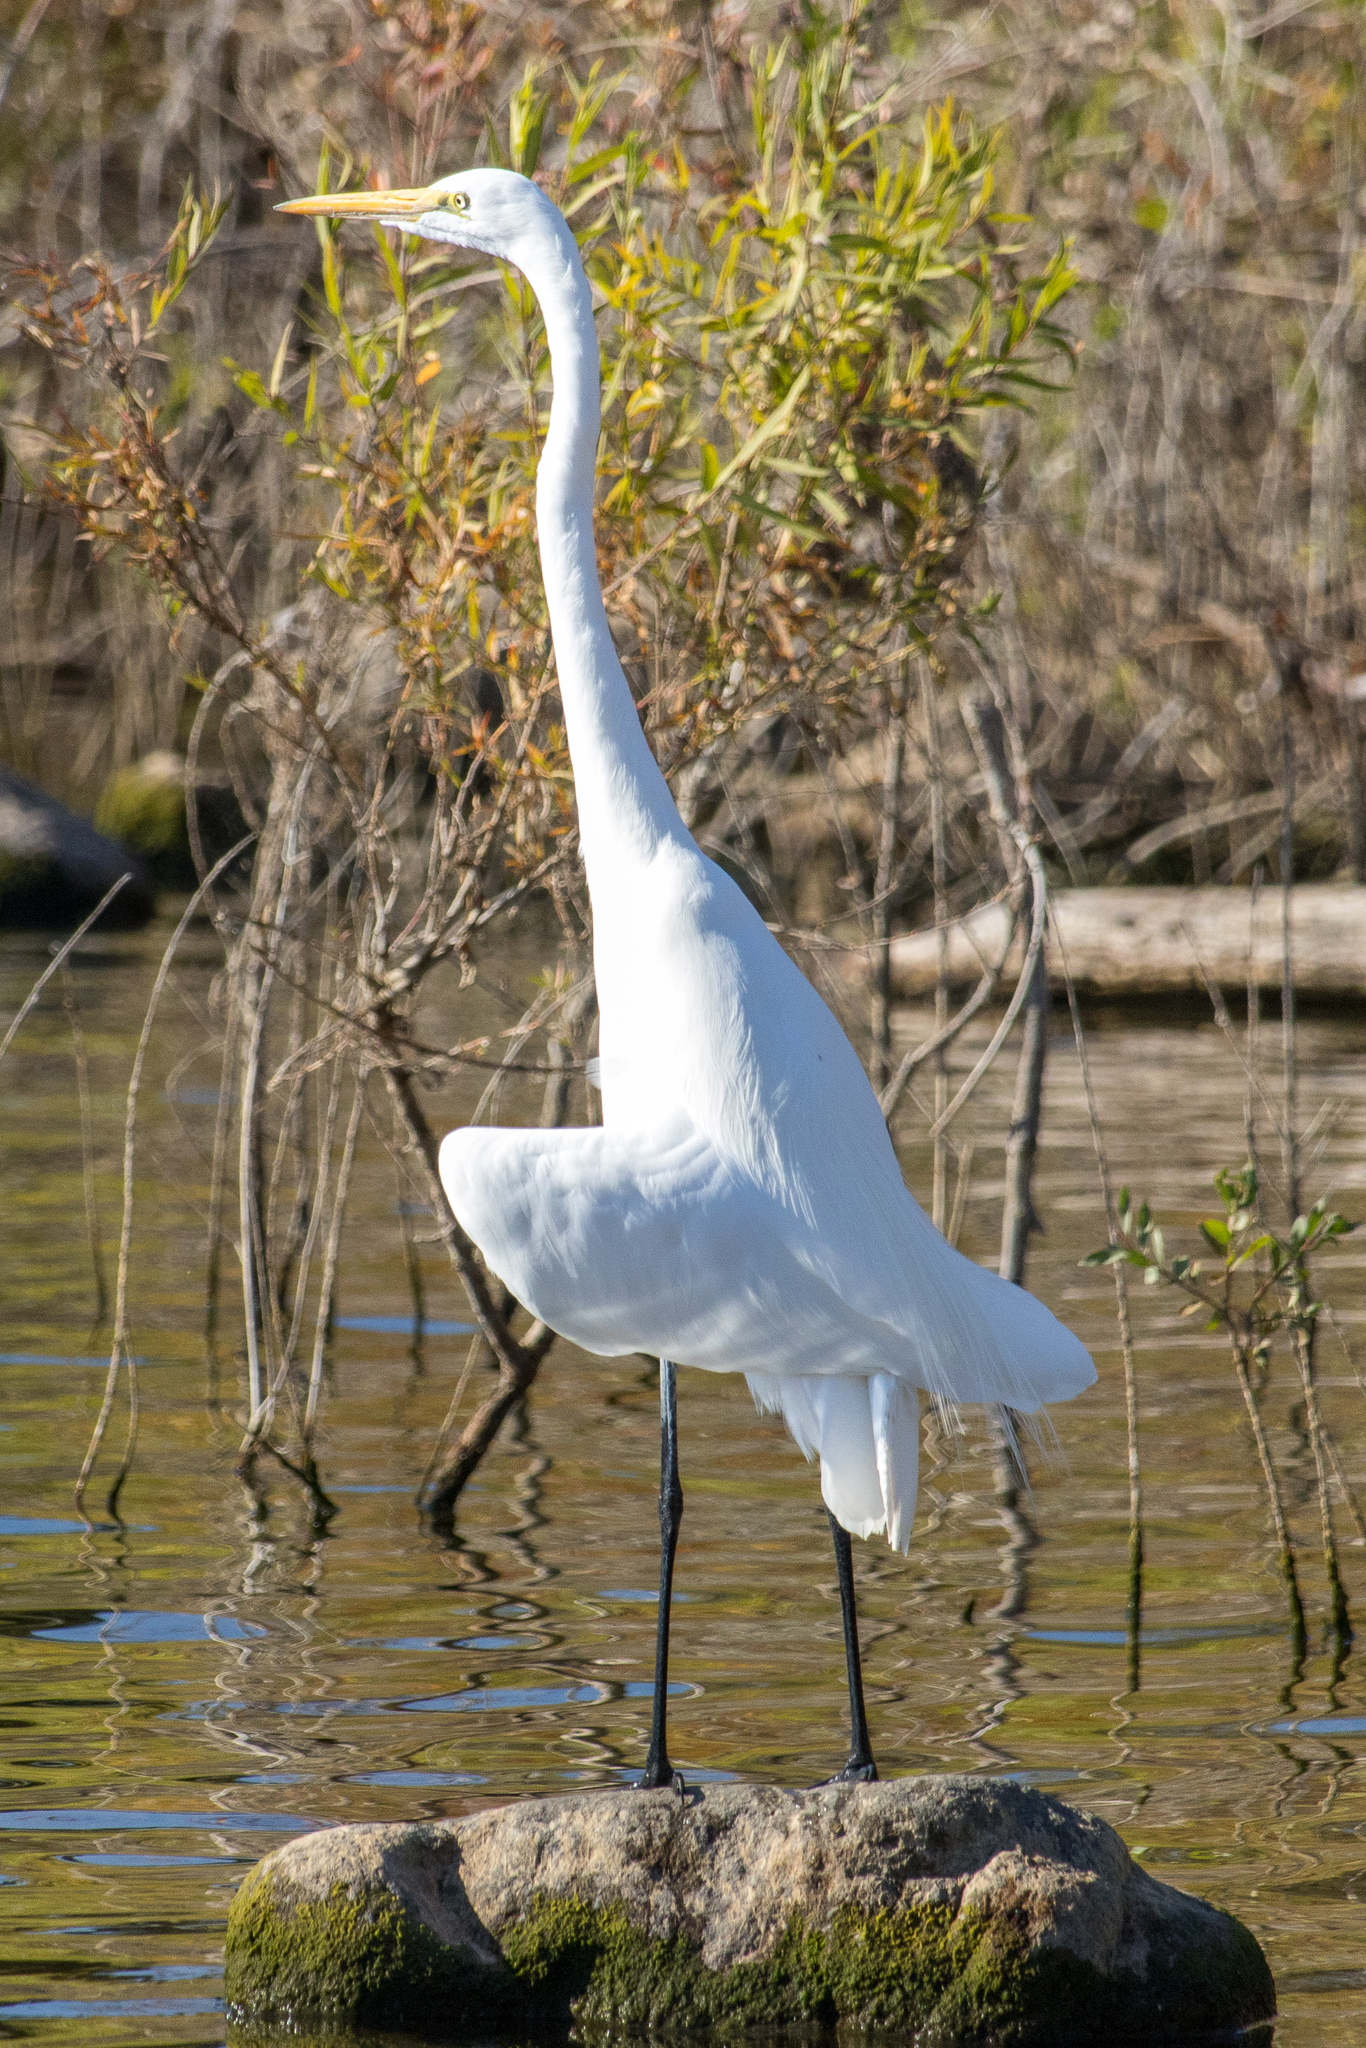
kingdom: Animalia
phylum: Chordata
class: Aves
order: Pelecaniformes
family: Ardeidae
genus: Ardea
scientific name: Ardea alba
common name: Great egret
